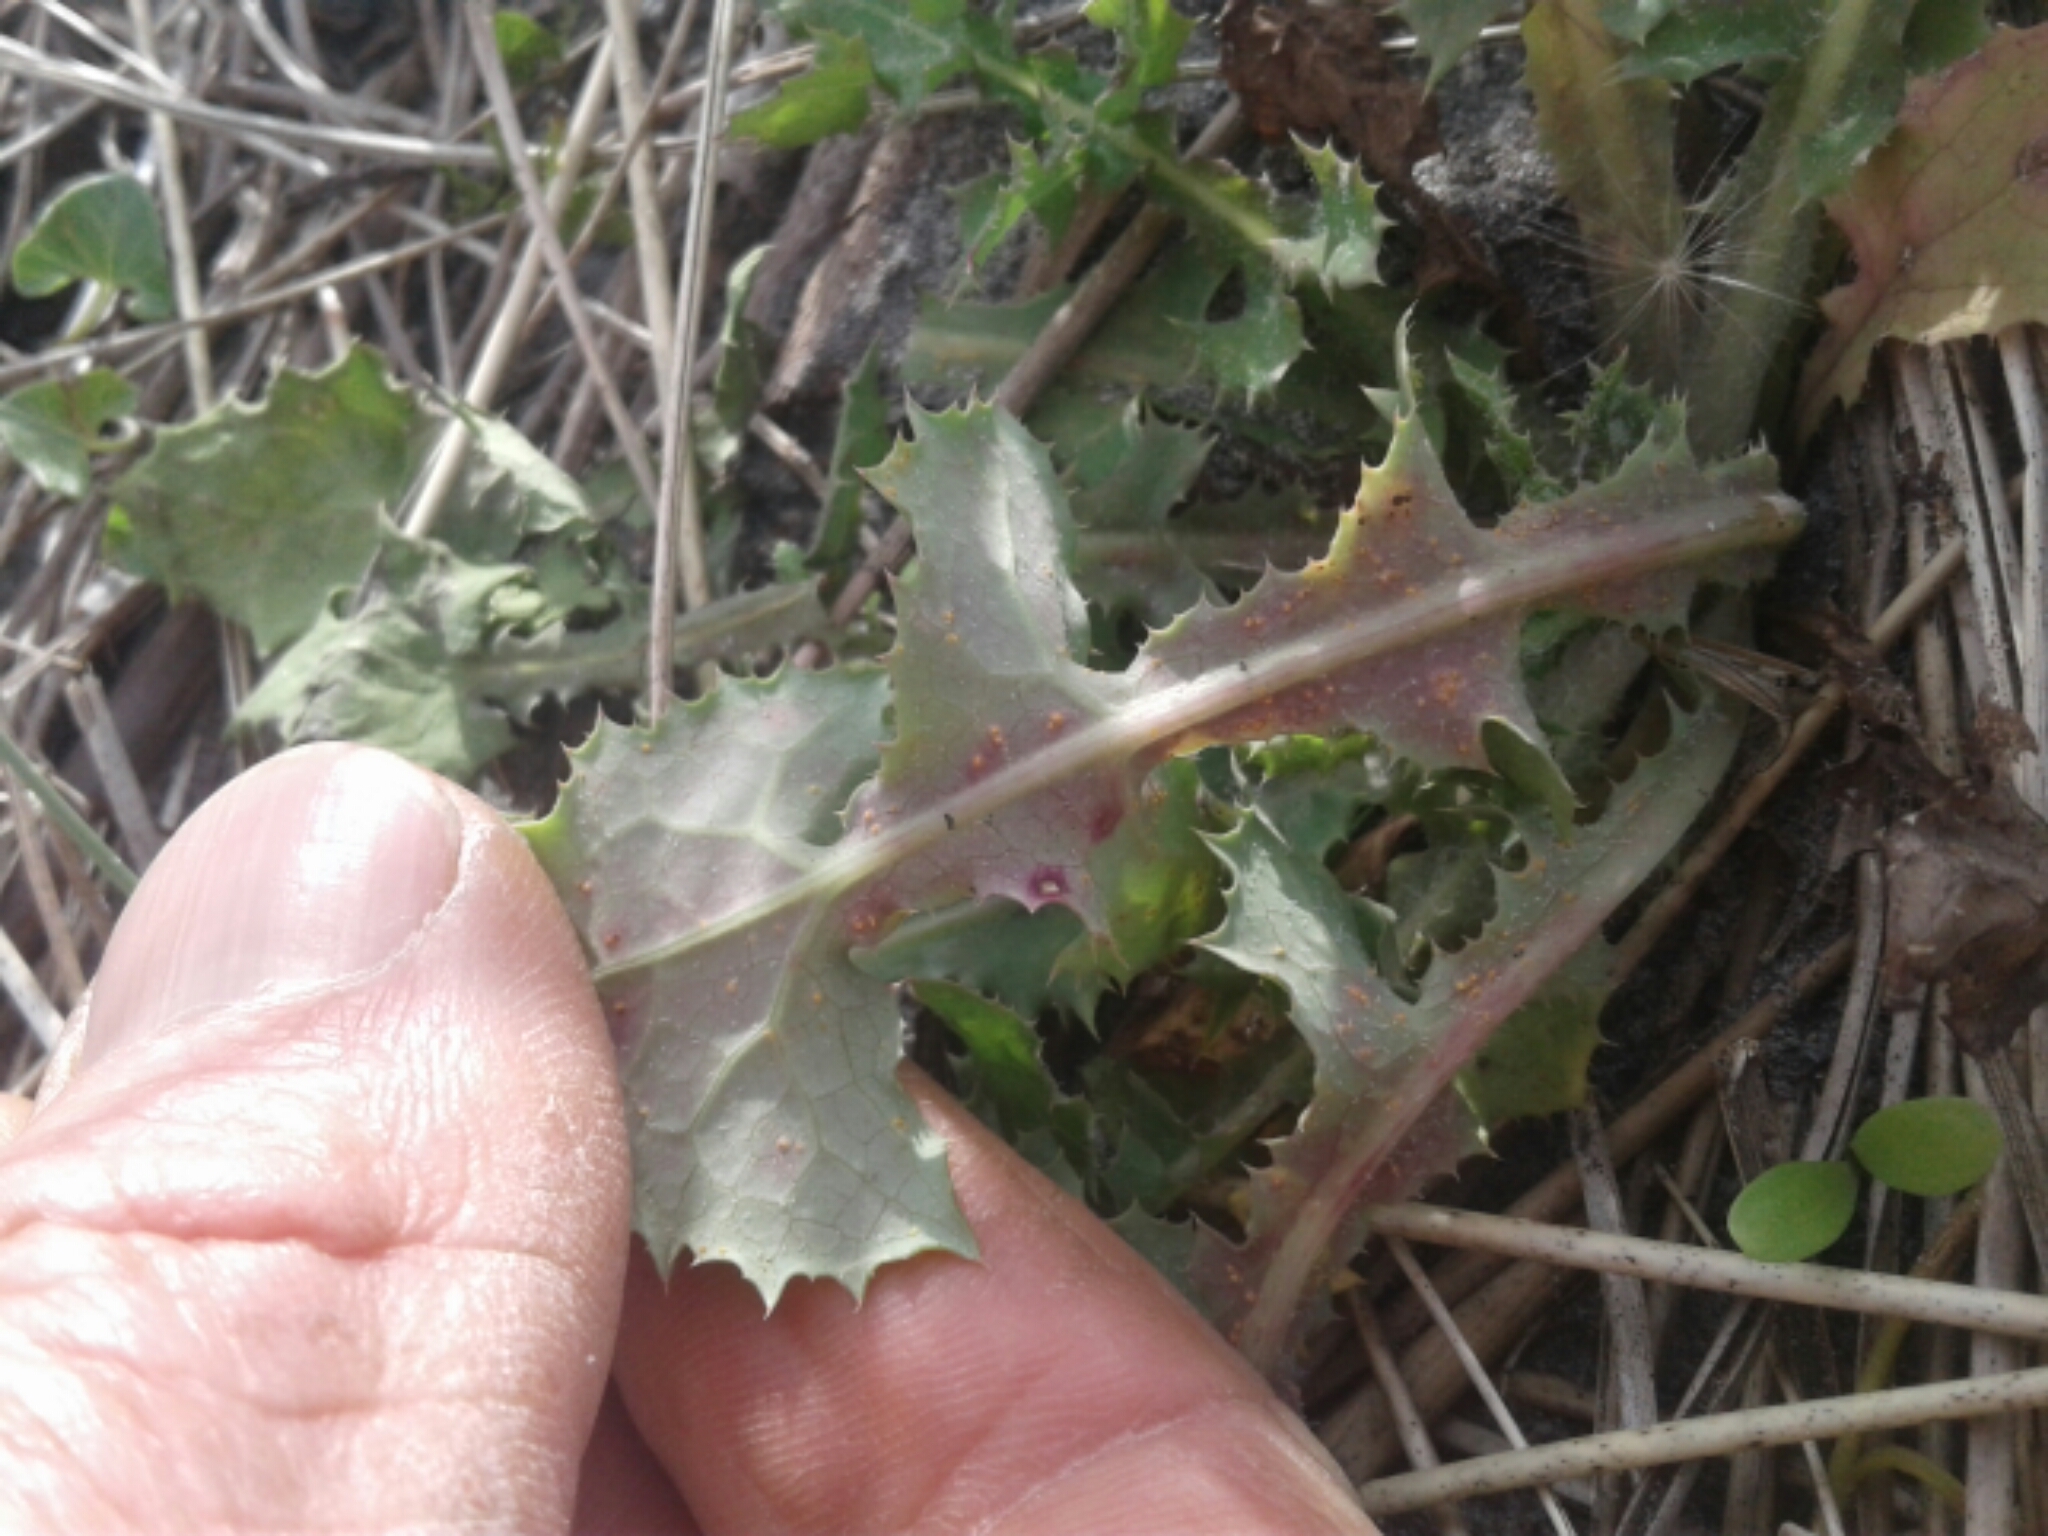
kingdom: Plantae
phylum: Tracheophyta
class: Magnoliopsida
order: Asterales
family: Asteraceae
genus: Sonchus
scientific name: Sonchus oleraceus
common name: Common sowthistle
